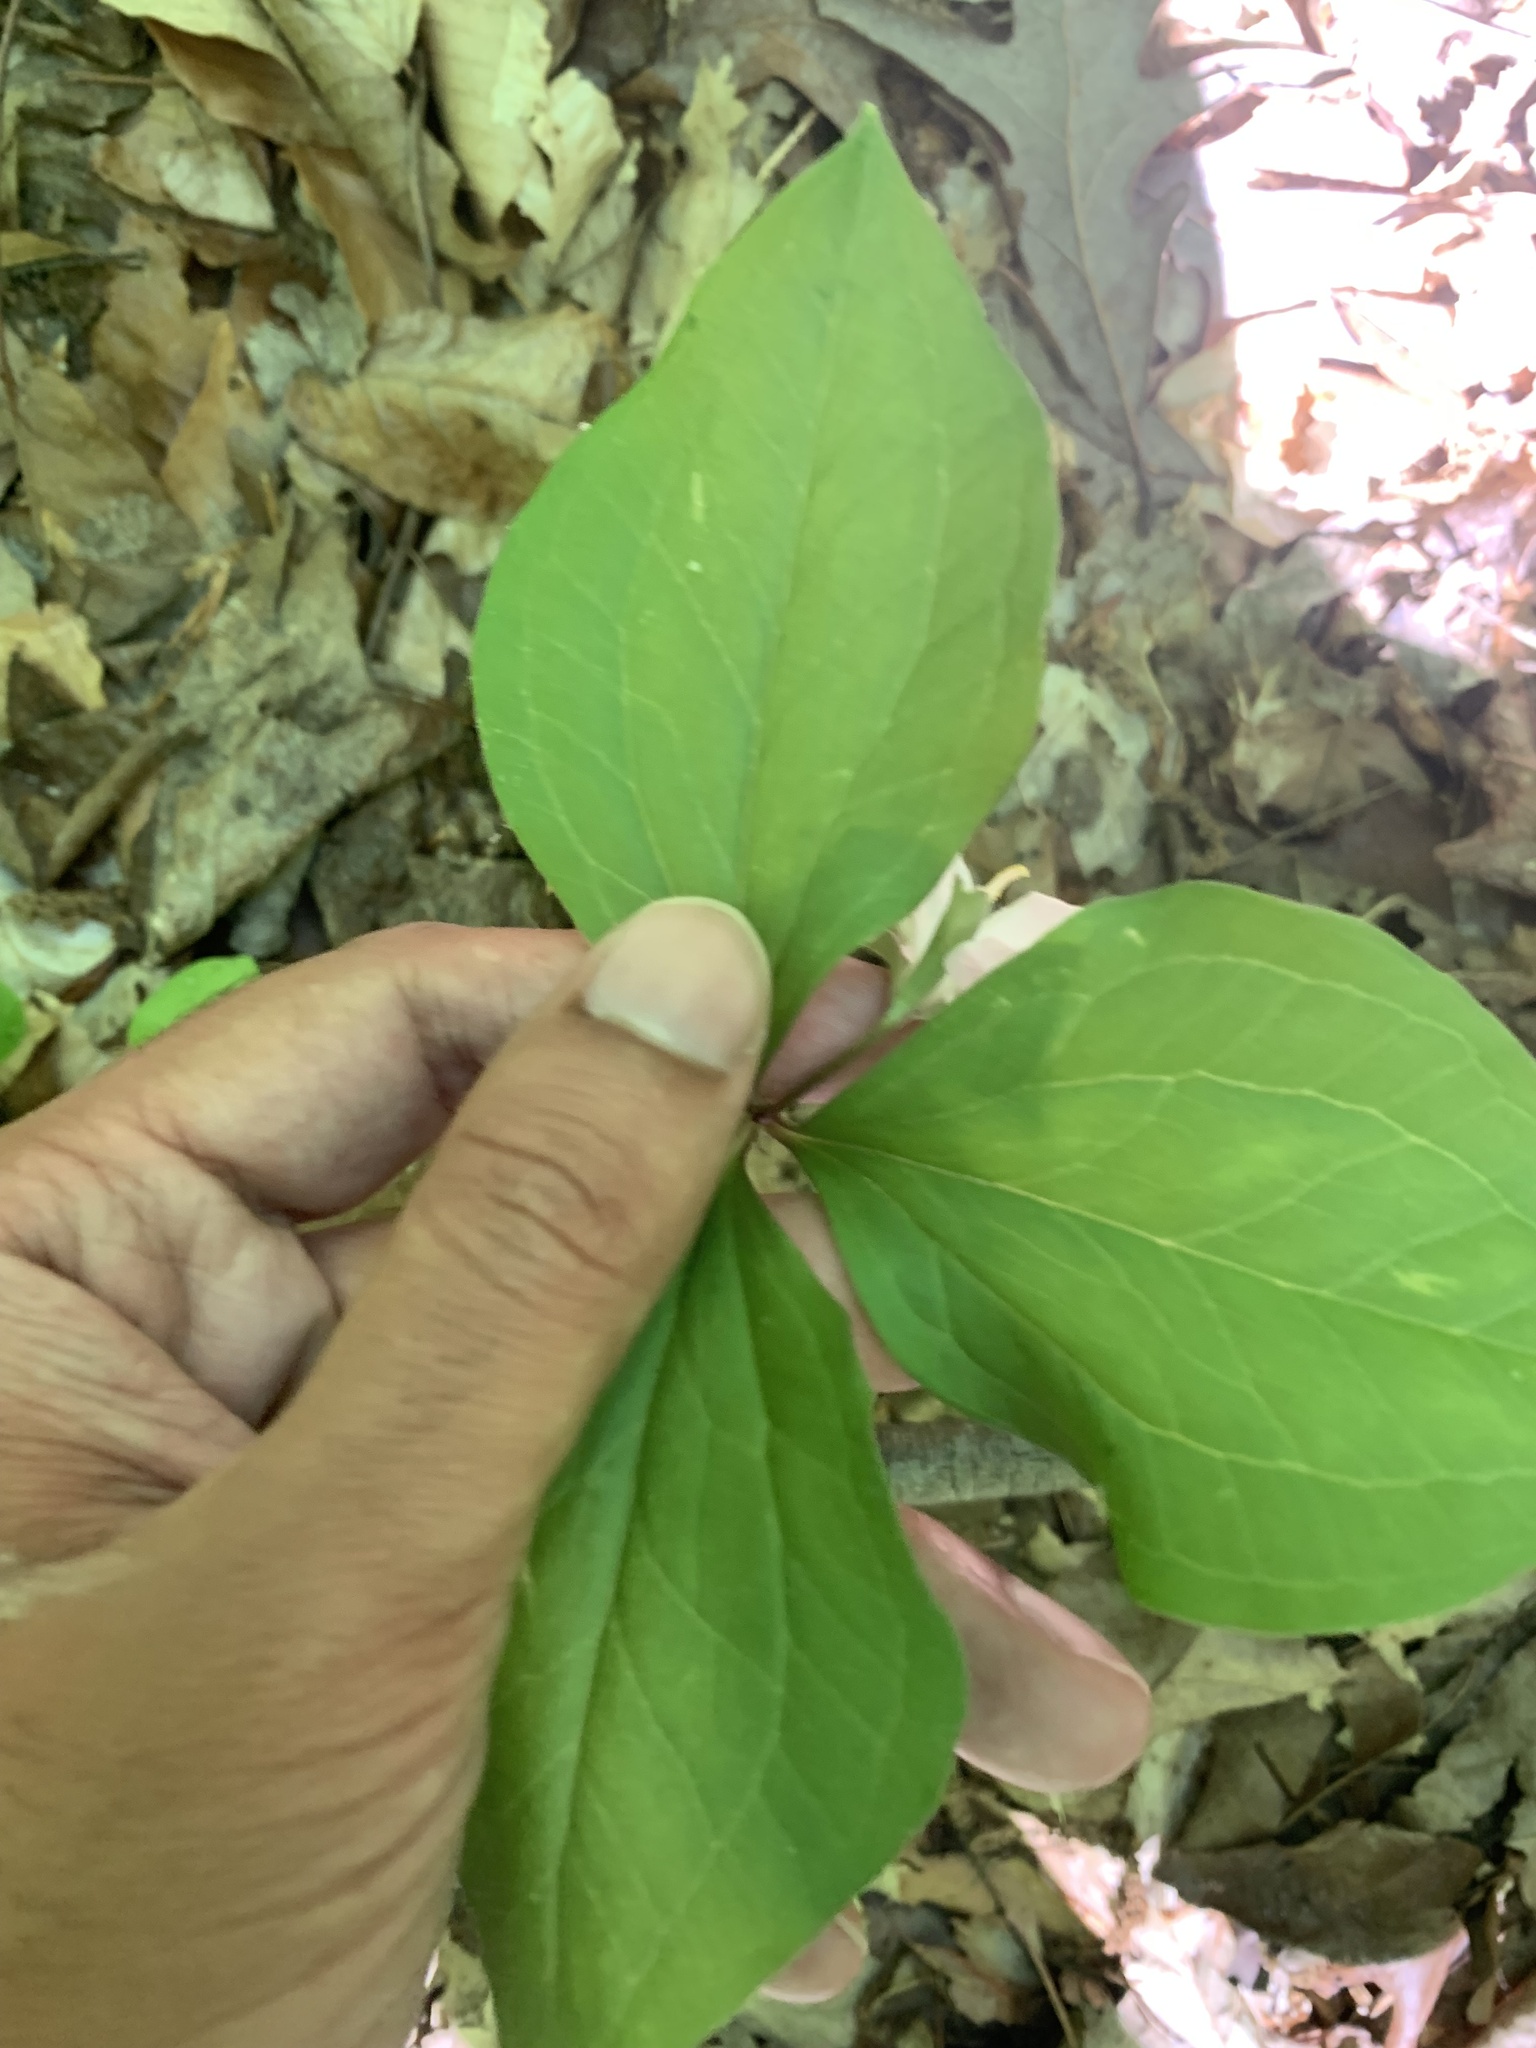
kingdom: Plantae
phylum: Tracheophyta
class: Liliopsida
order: Liliales
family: Melanthiaceae
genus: Trillium
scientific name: Trillium catesbaei
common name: Bashful trillium
